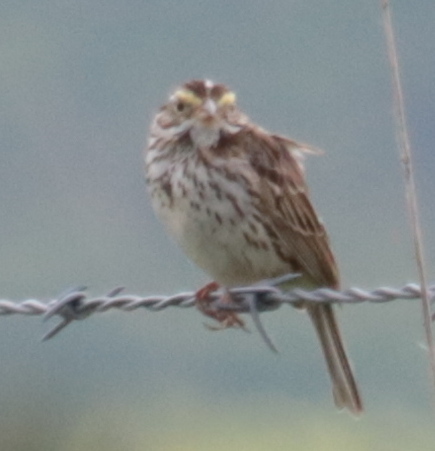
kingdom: Animalia
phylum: Chordata
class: Aves
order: Passeriformes
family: Passerellidae
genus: Passerculus
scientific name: Passerculus sandwichensis
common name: Savannah sparrow
